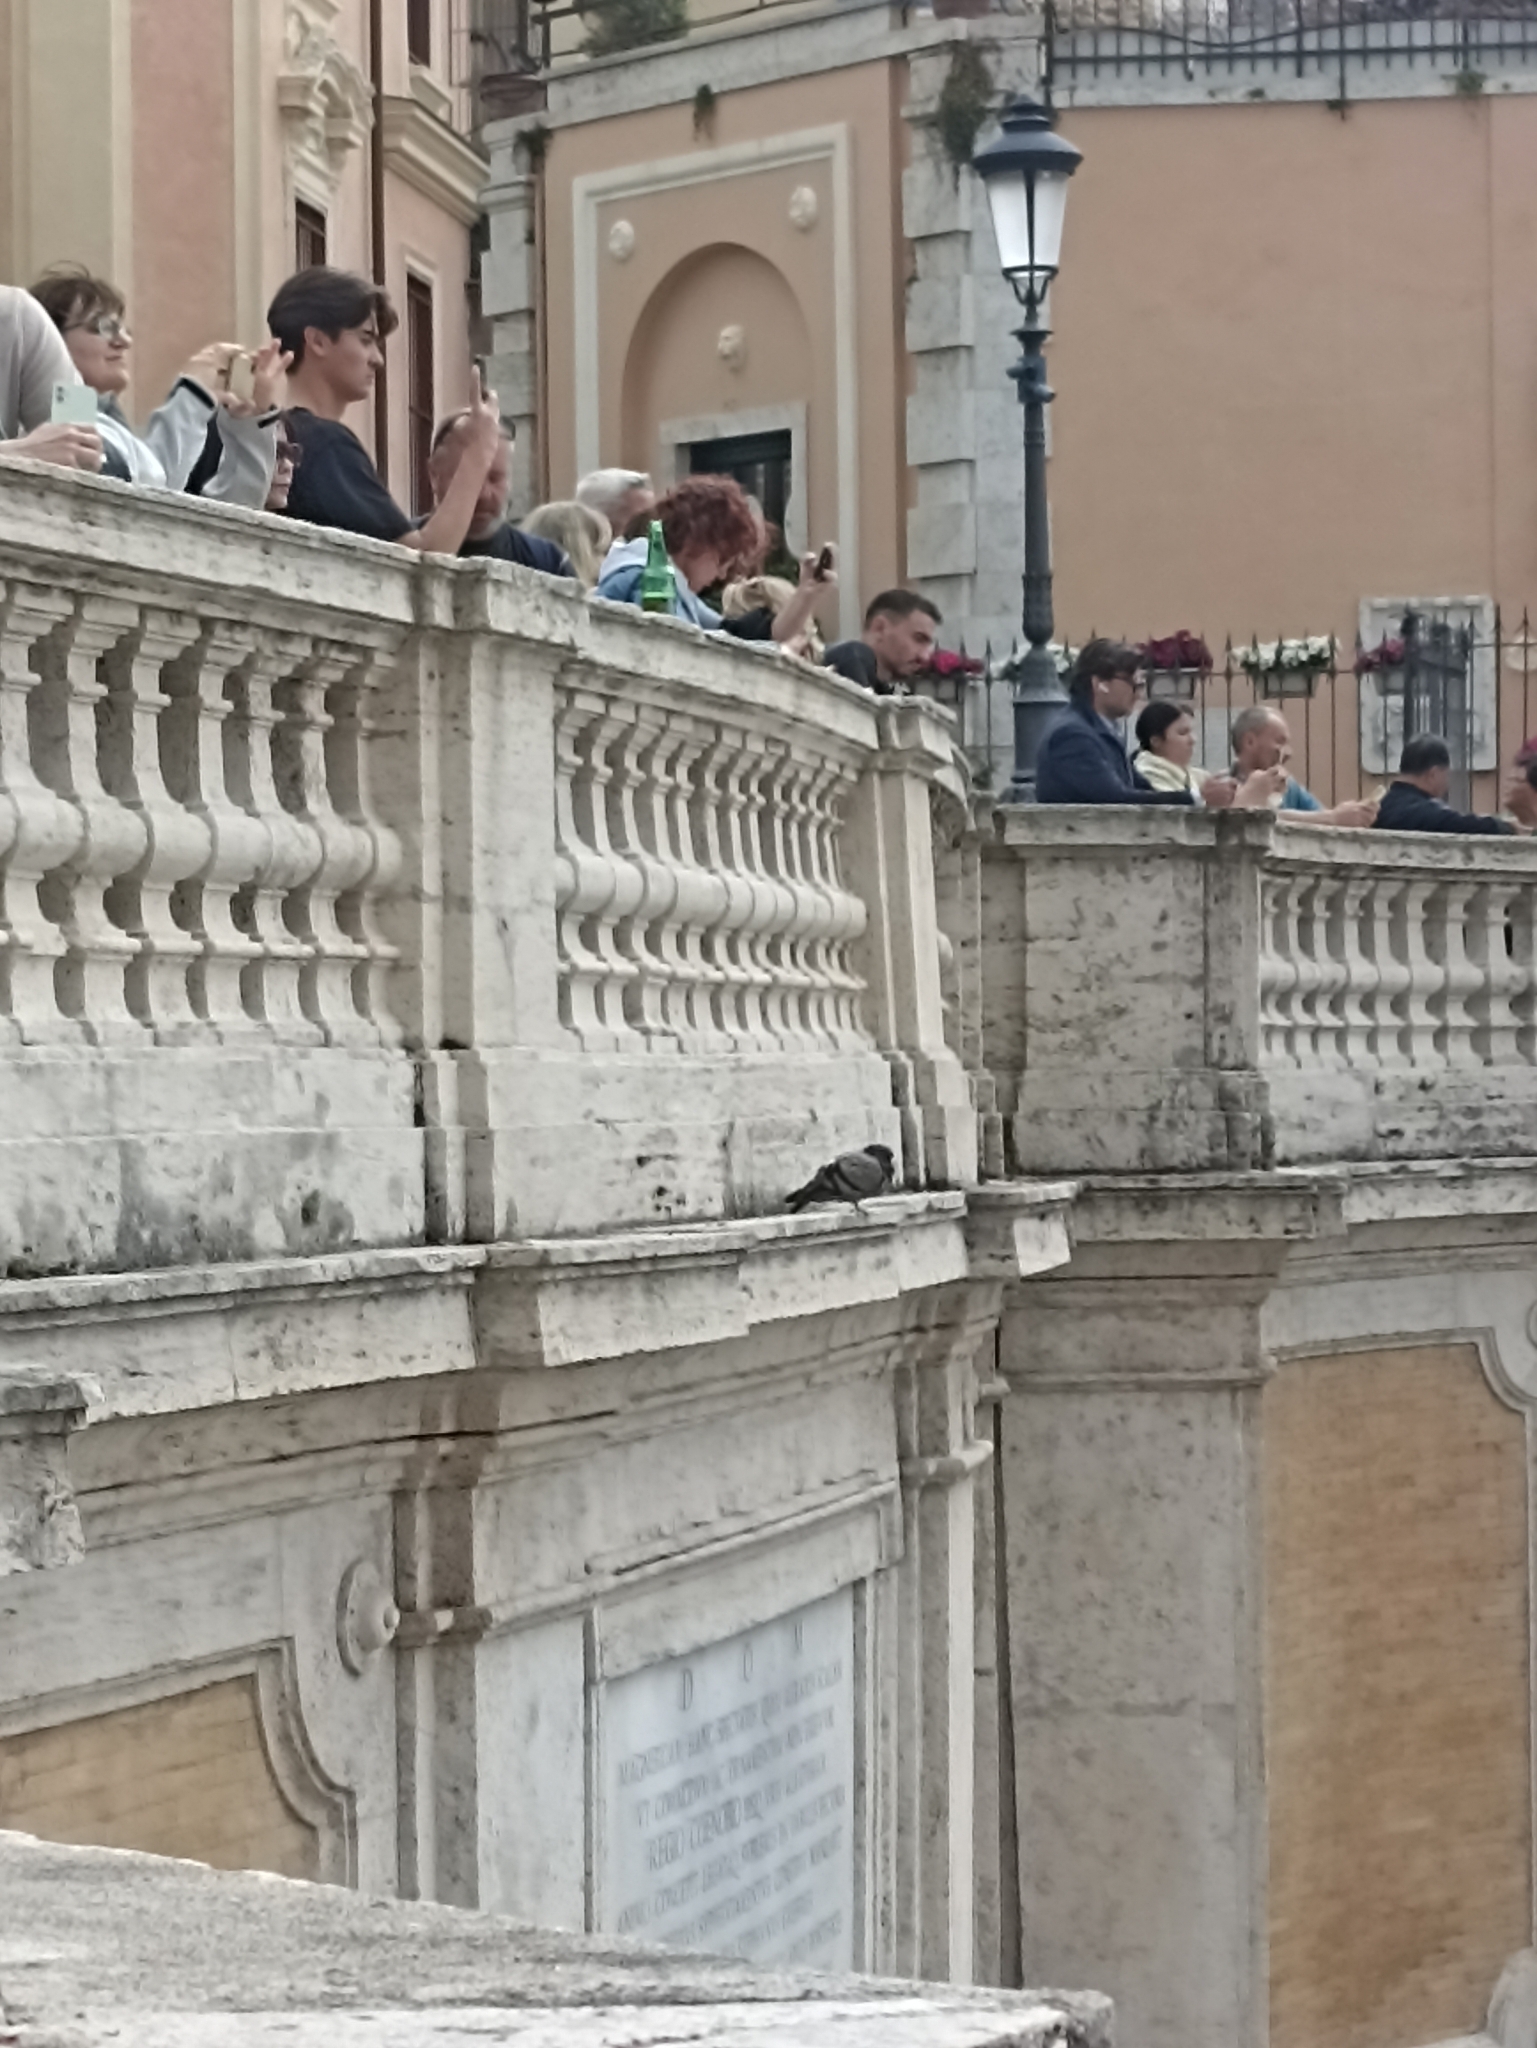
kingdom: Animalia
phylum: Chordata
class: Aves
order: Columbiformes
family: Columbidae
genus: Columba
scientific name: Columba livia
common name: Rock pigeon
